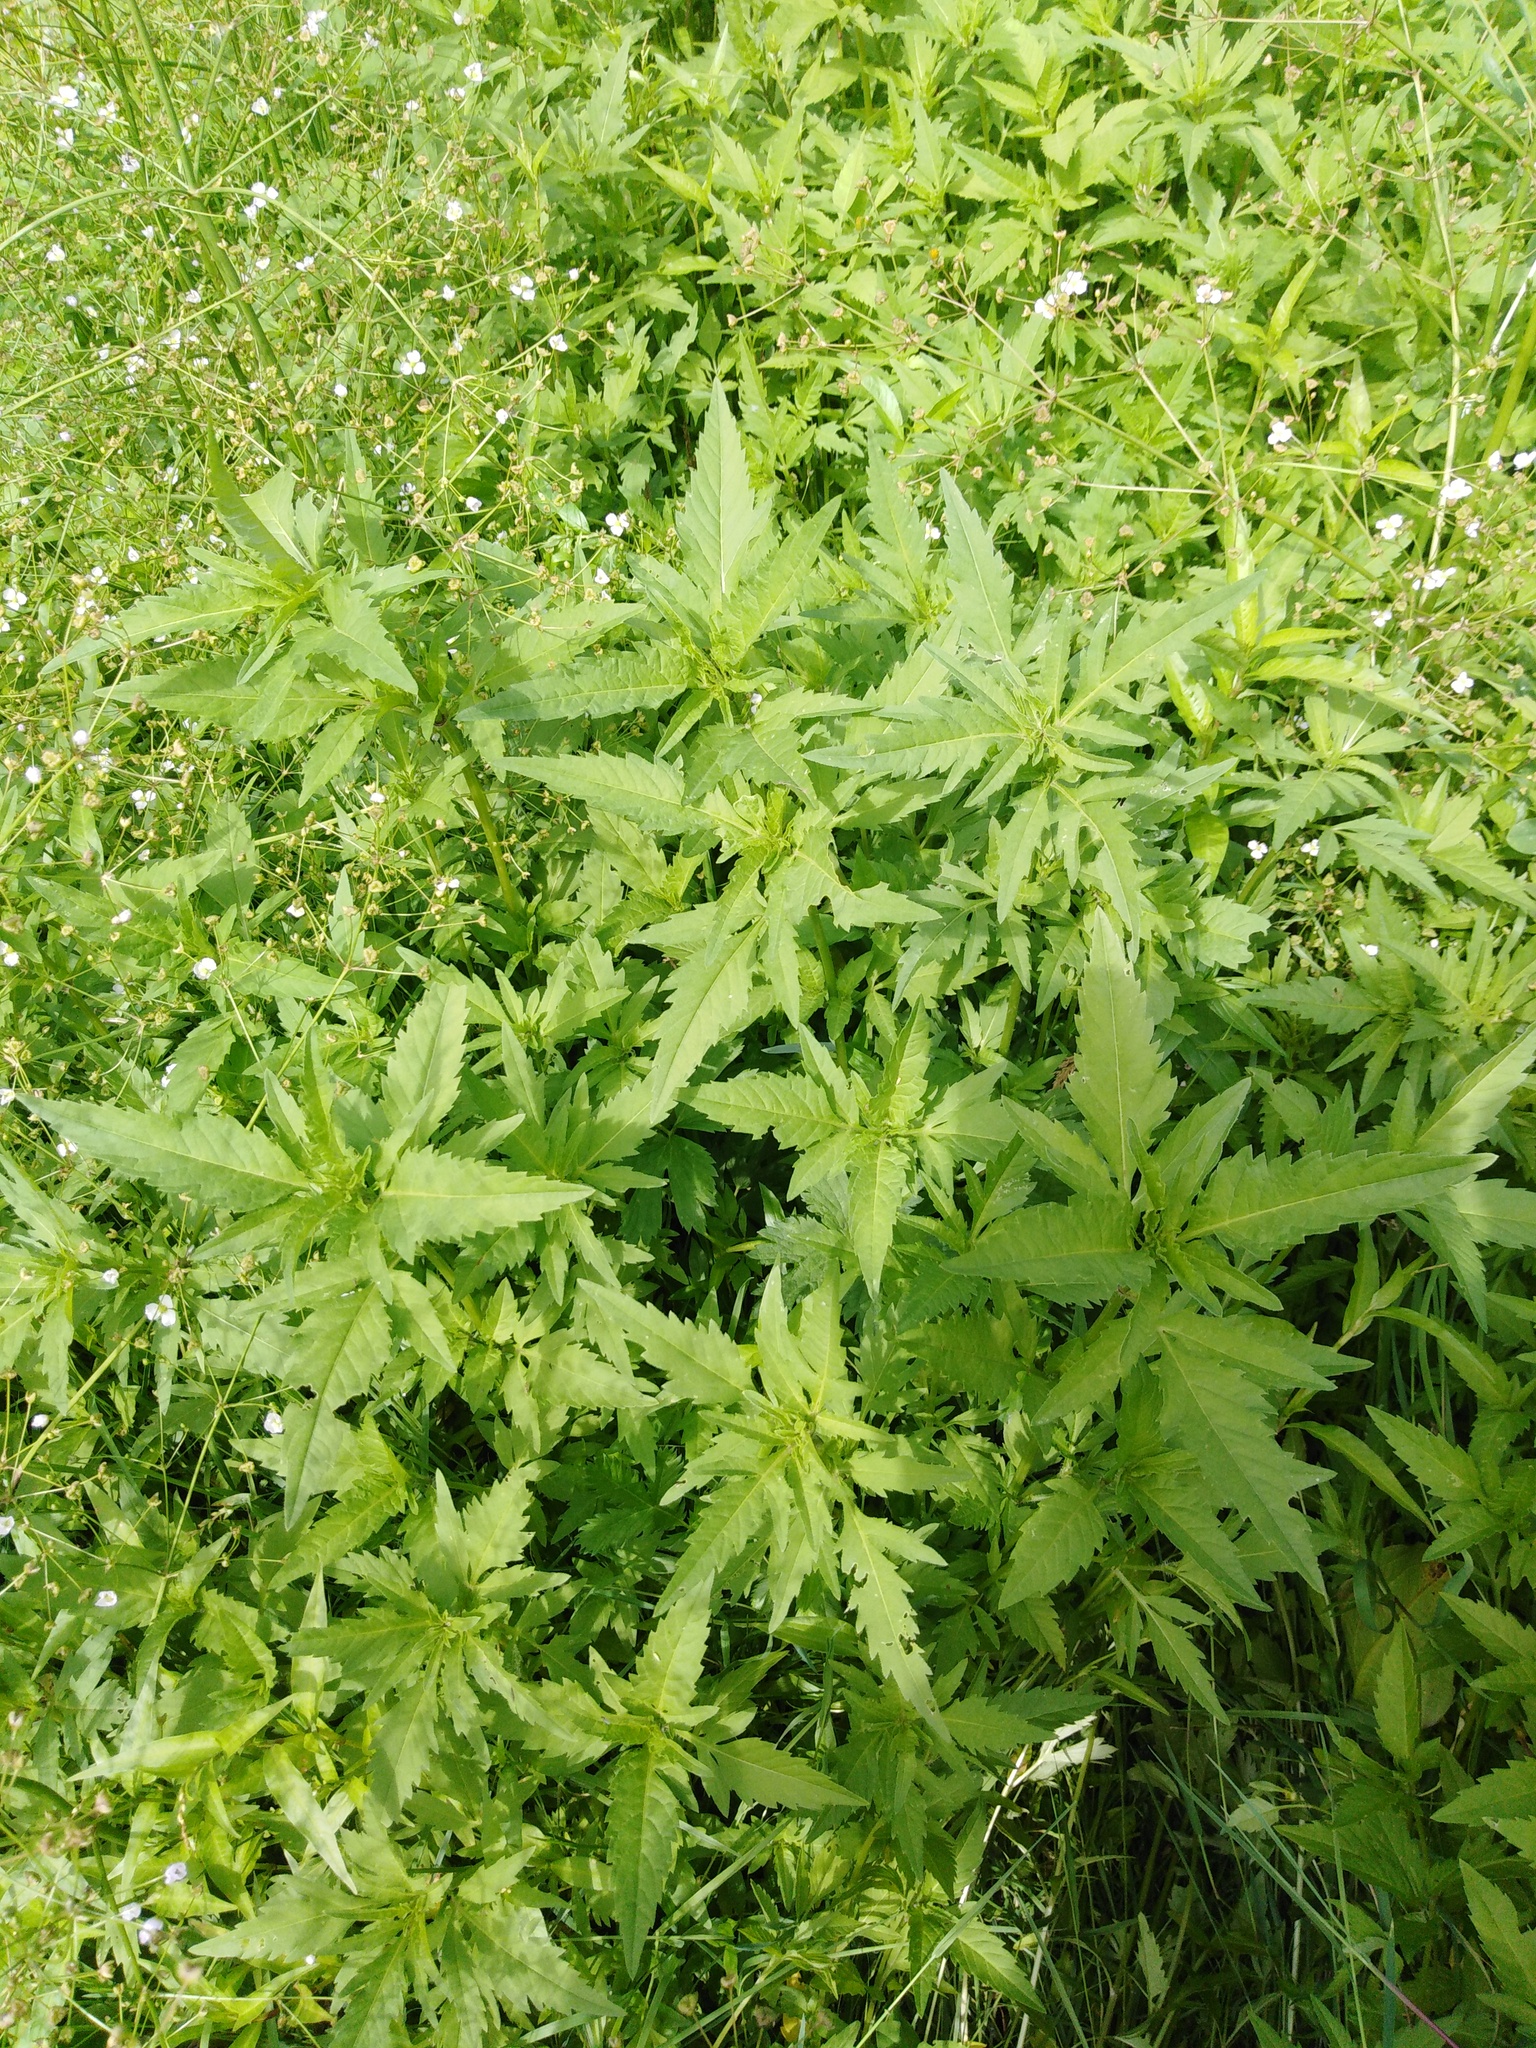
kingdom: Plantae
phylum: Tracheophyta
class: Magnoliopsida
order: Asterales
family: Asteraceae
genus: Bidens
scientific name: Bidens tripartita
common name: Trifid bur-marigold
